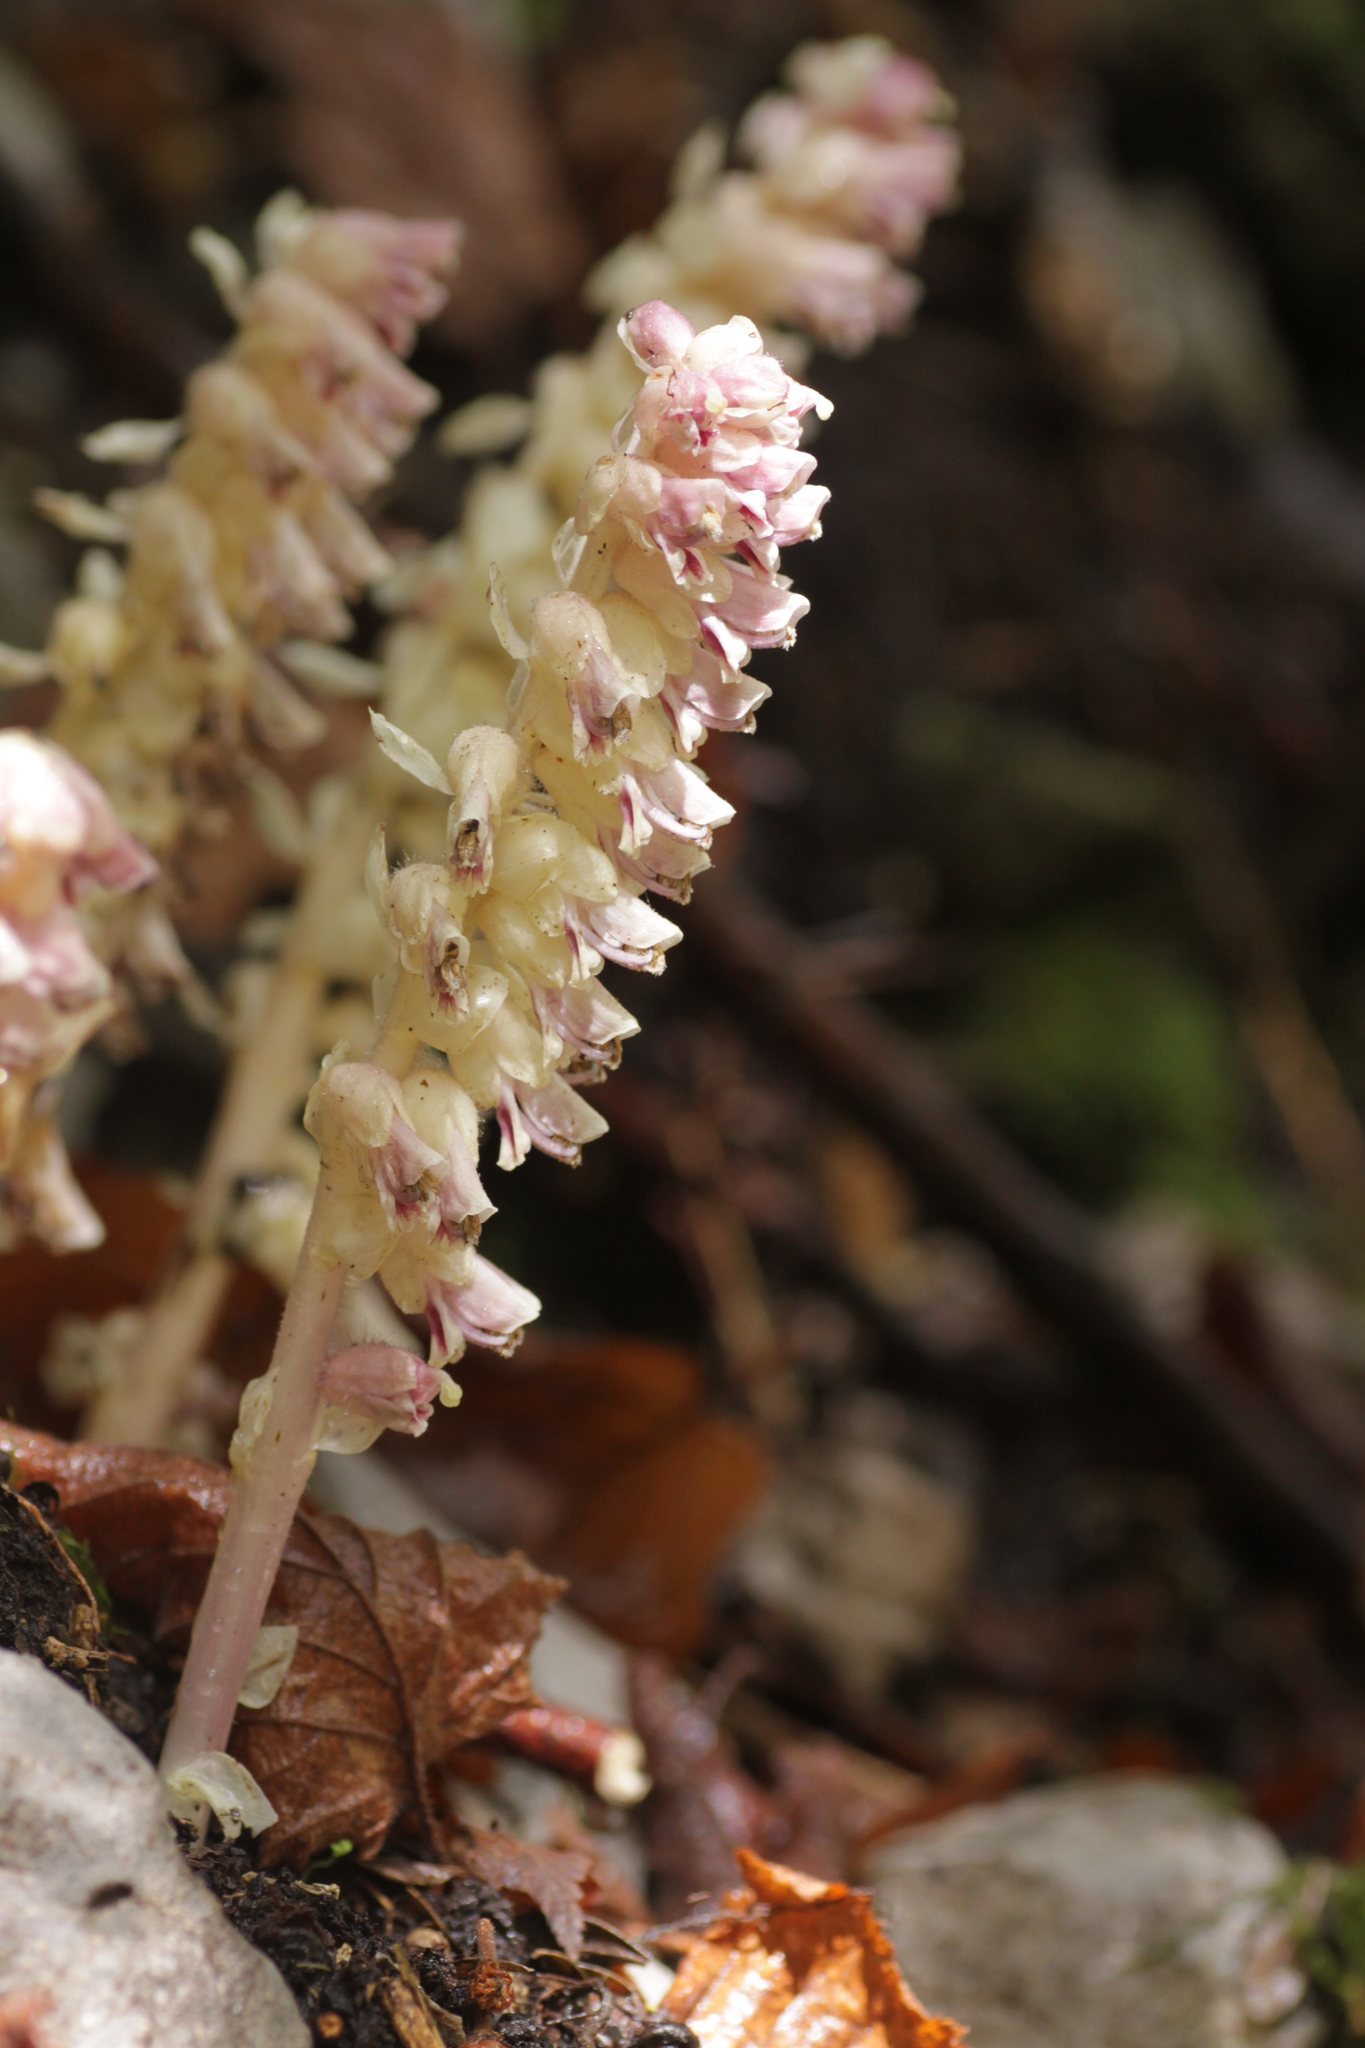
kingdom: Plantae
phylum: Tracheophyta
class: Magnoliopsida
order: Lamiales
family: Orobanchaceae
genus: Lathraea
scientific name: Lathraea squamaria
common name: Toothwort
